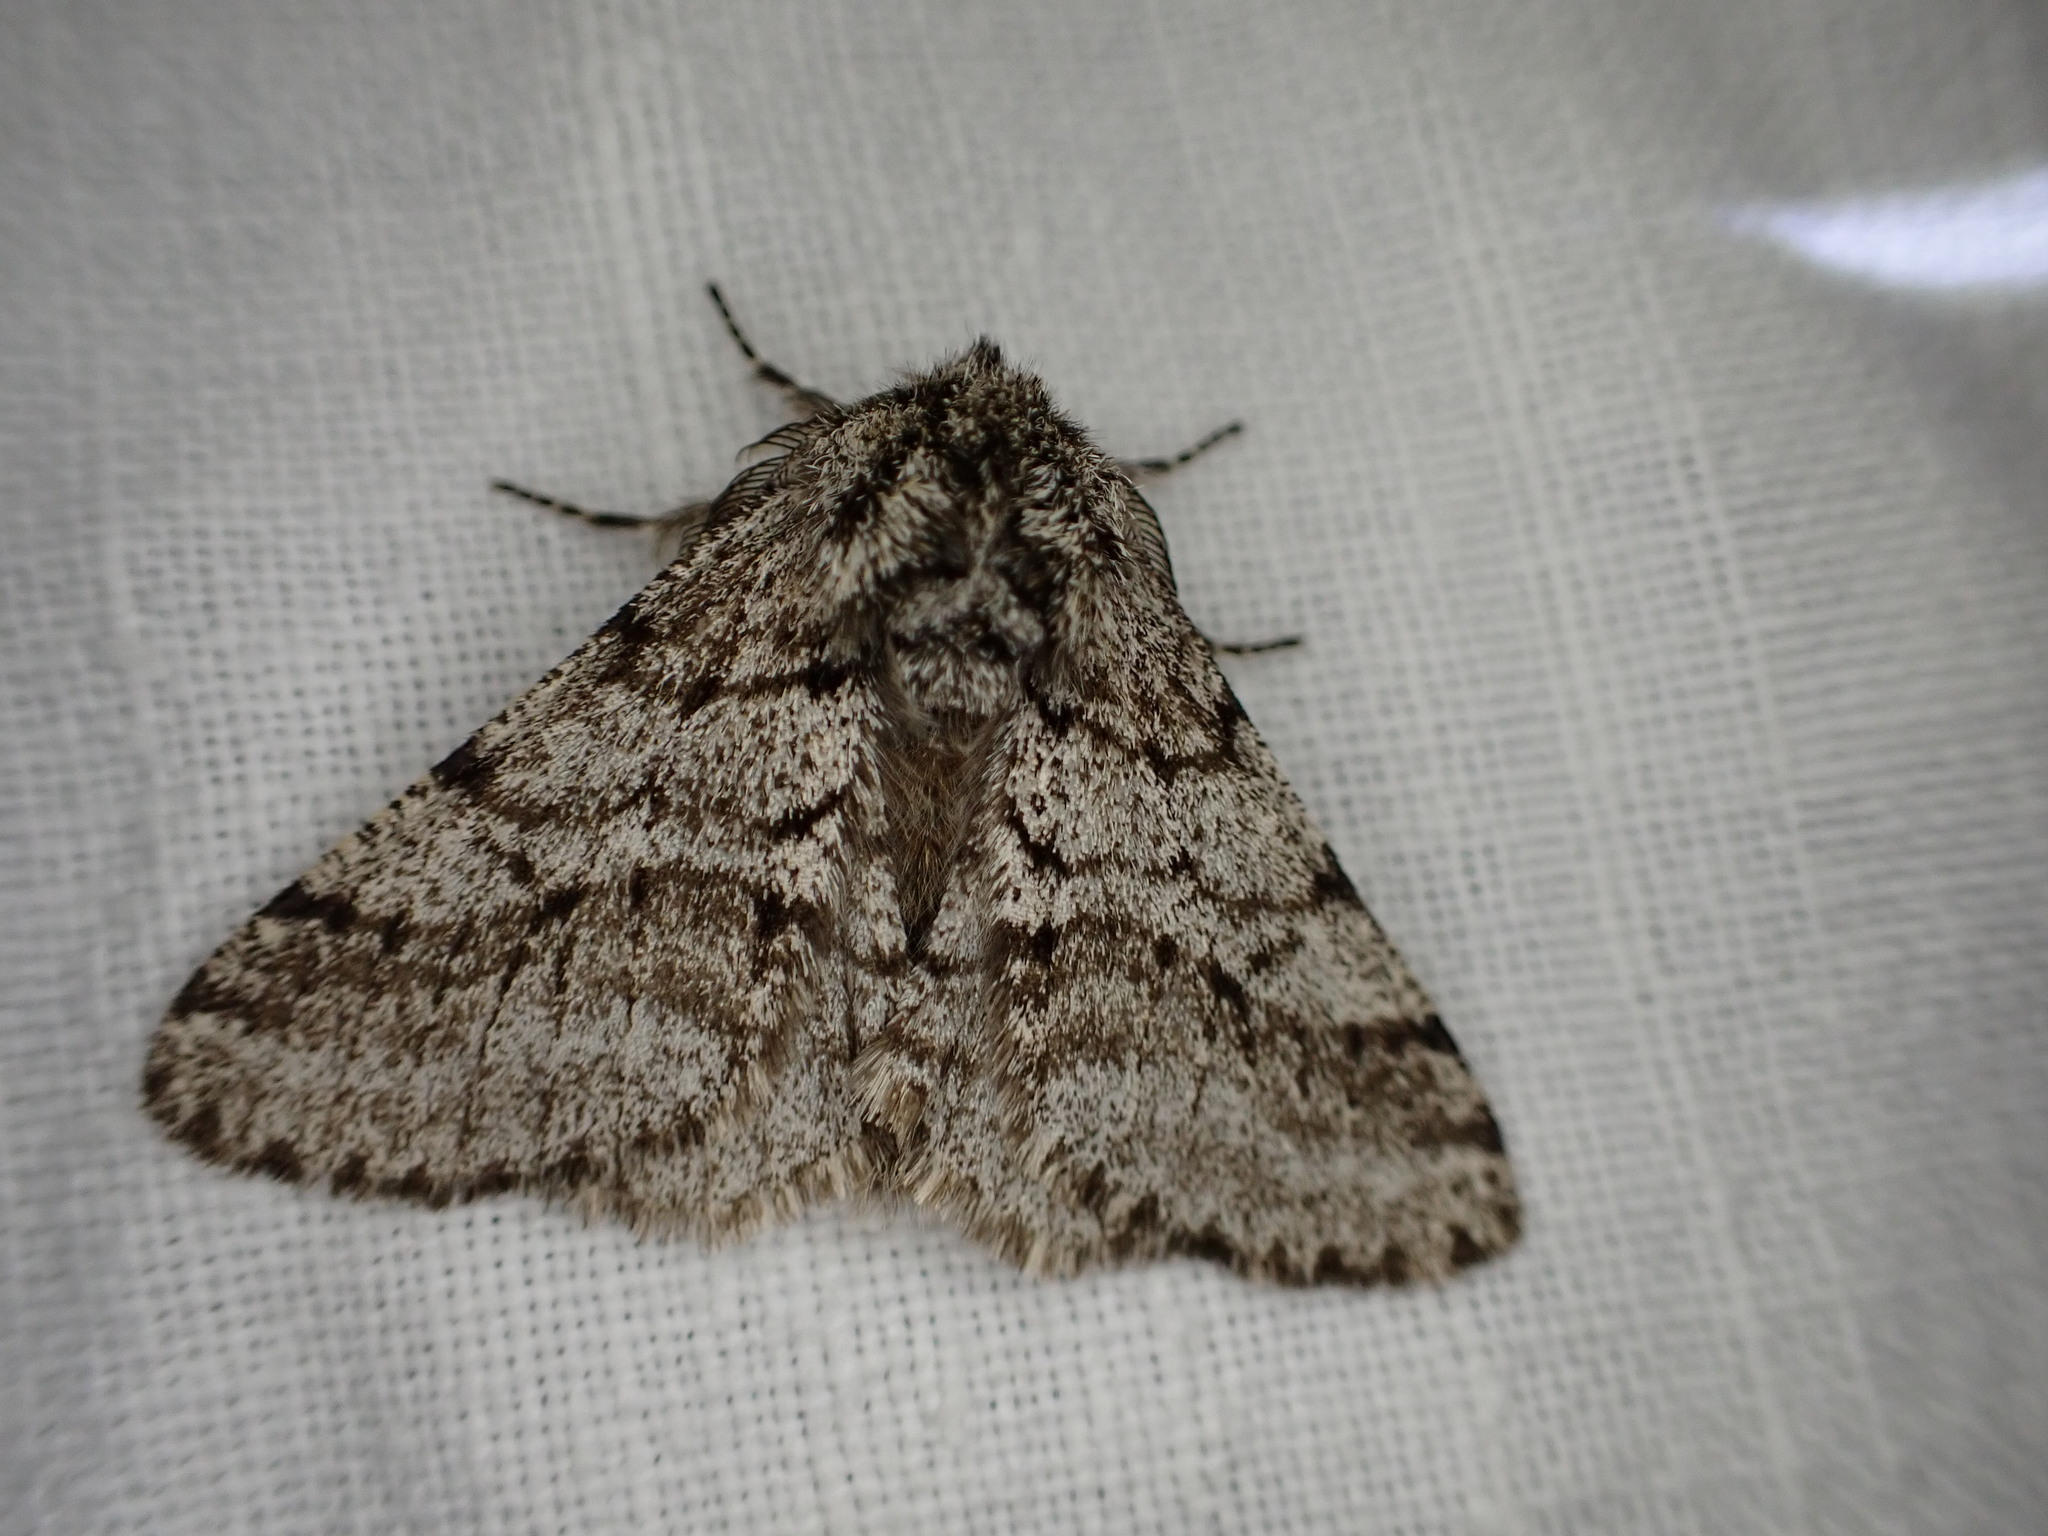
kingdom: Animalia
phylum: Arthropoda
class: Insecta
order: Lepidoptera
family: Geometridae
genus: Lycia
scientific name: Lycia hirtaria
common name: Brindled beauty
